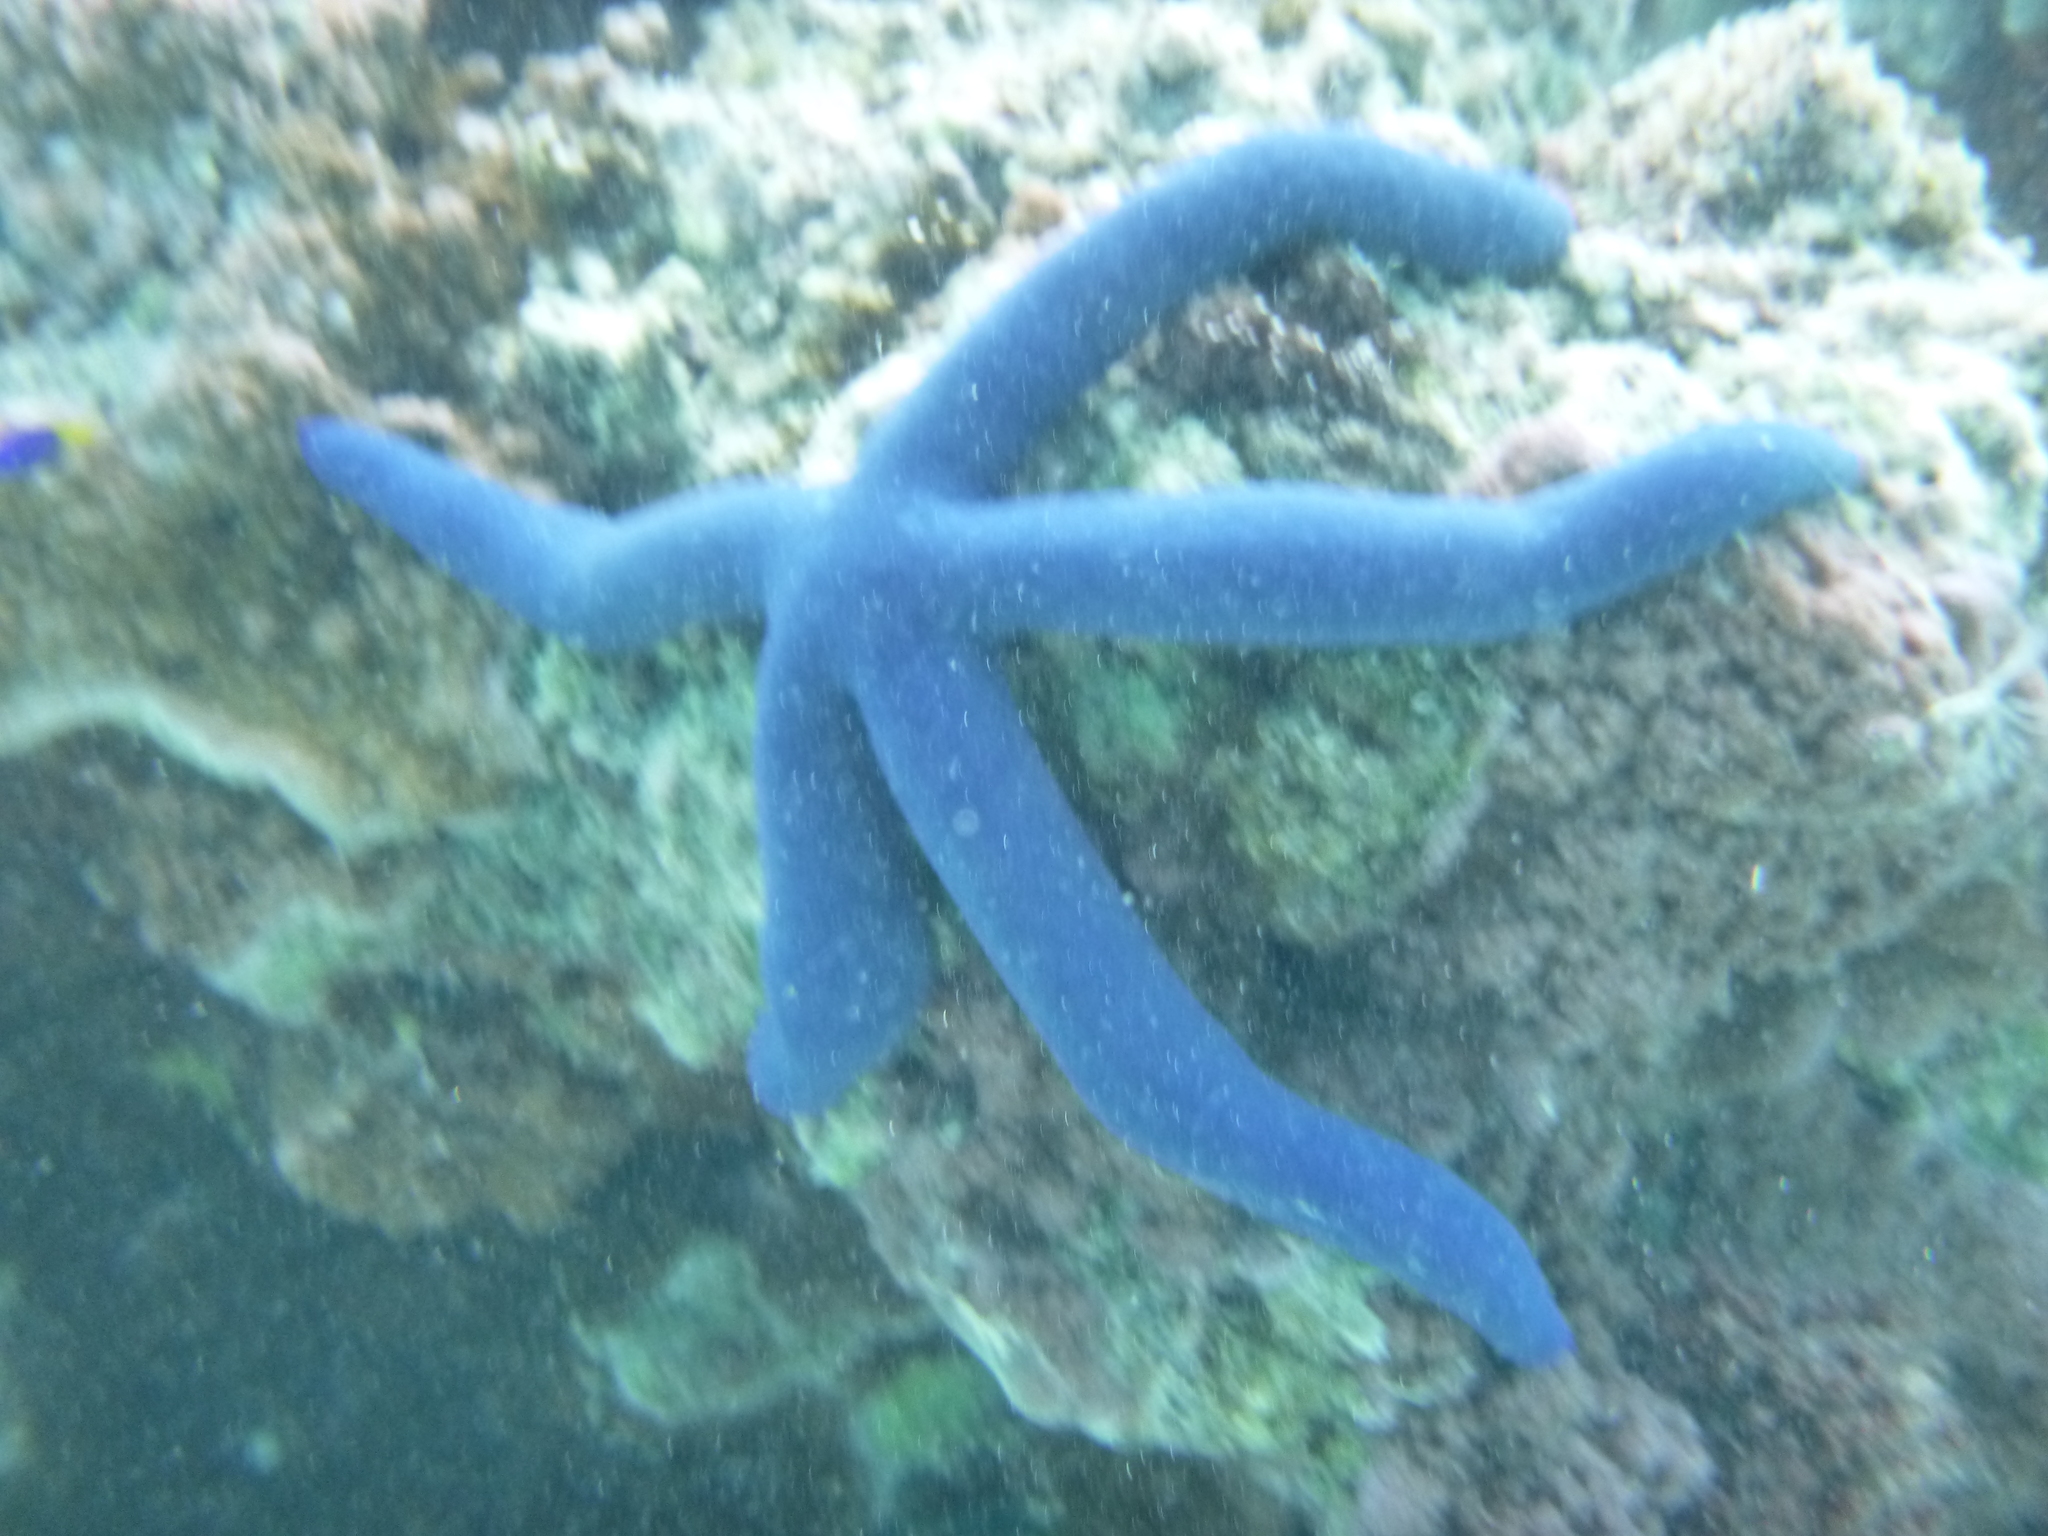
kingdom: Animalia
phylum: Echinodermata
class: Asteroidea
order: Valvatida
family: Ophidiasteridae
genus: Linckia
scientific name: Linckia laevigata
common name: Azure sea star
